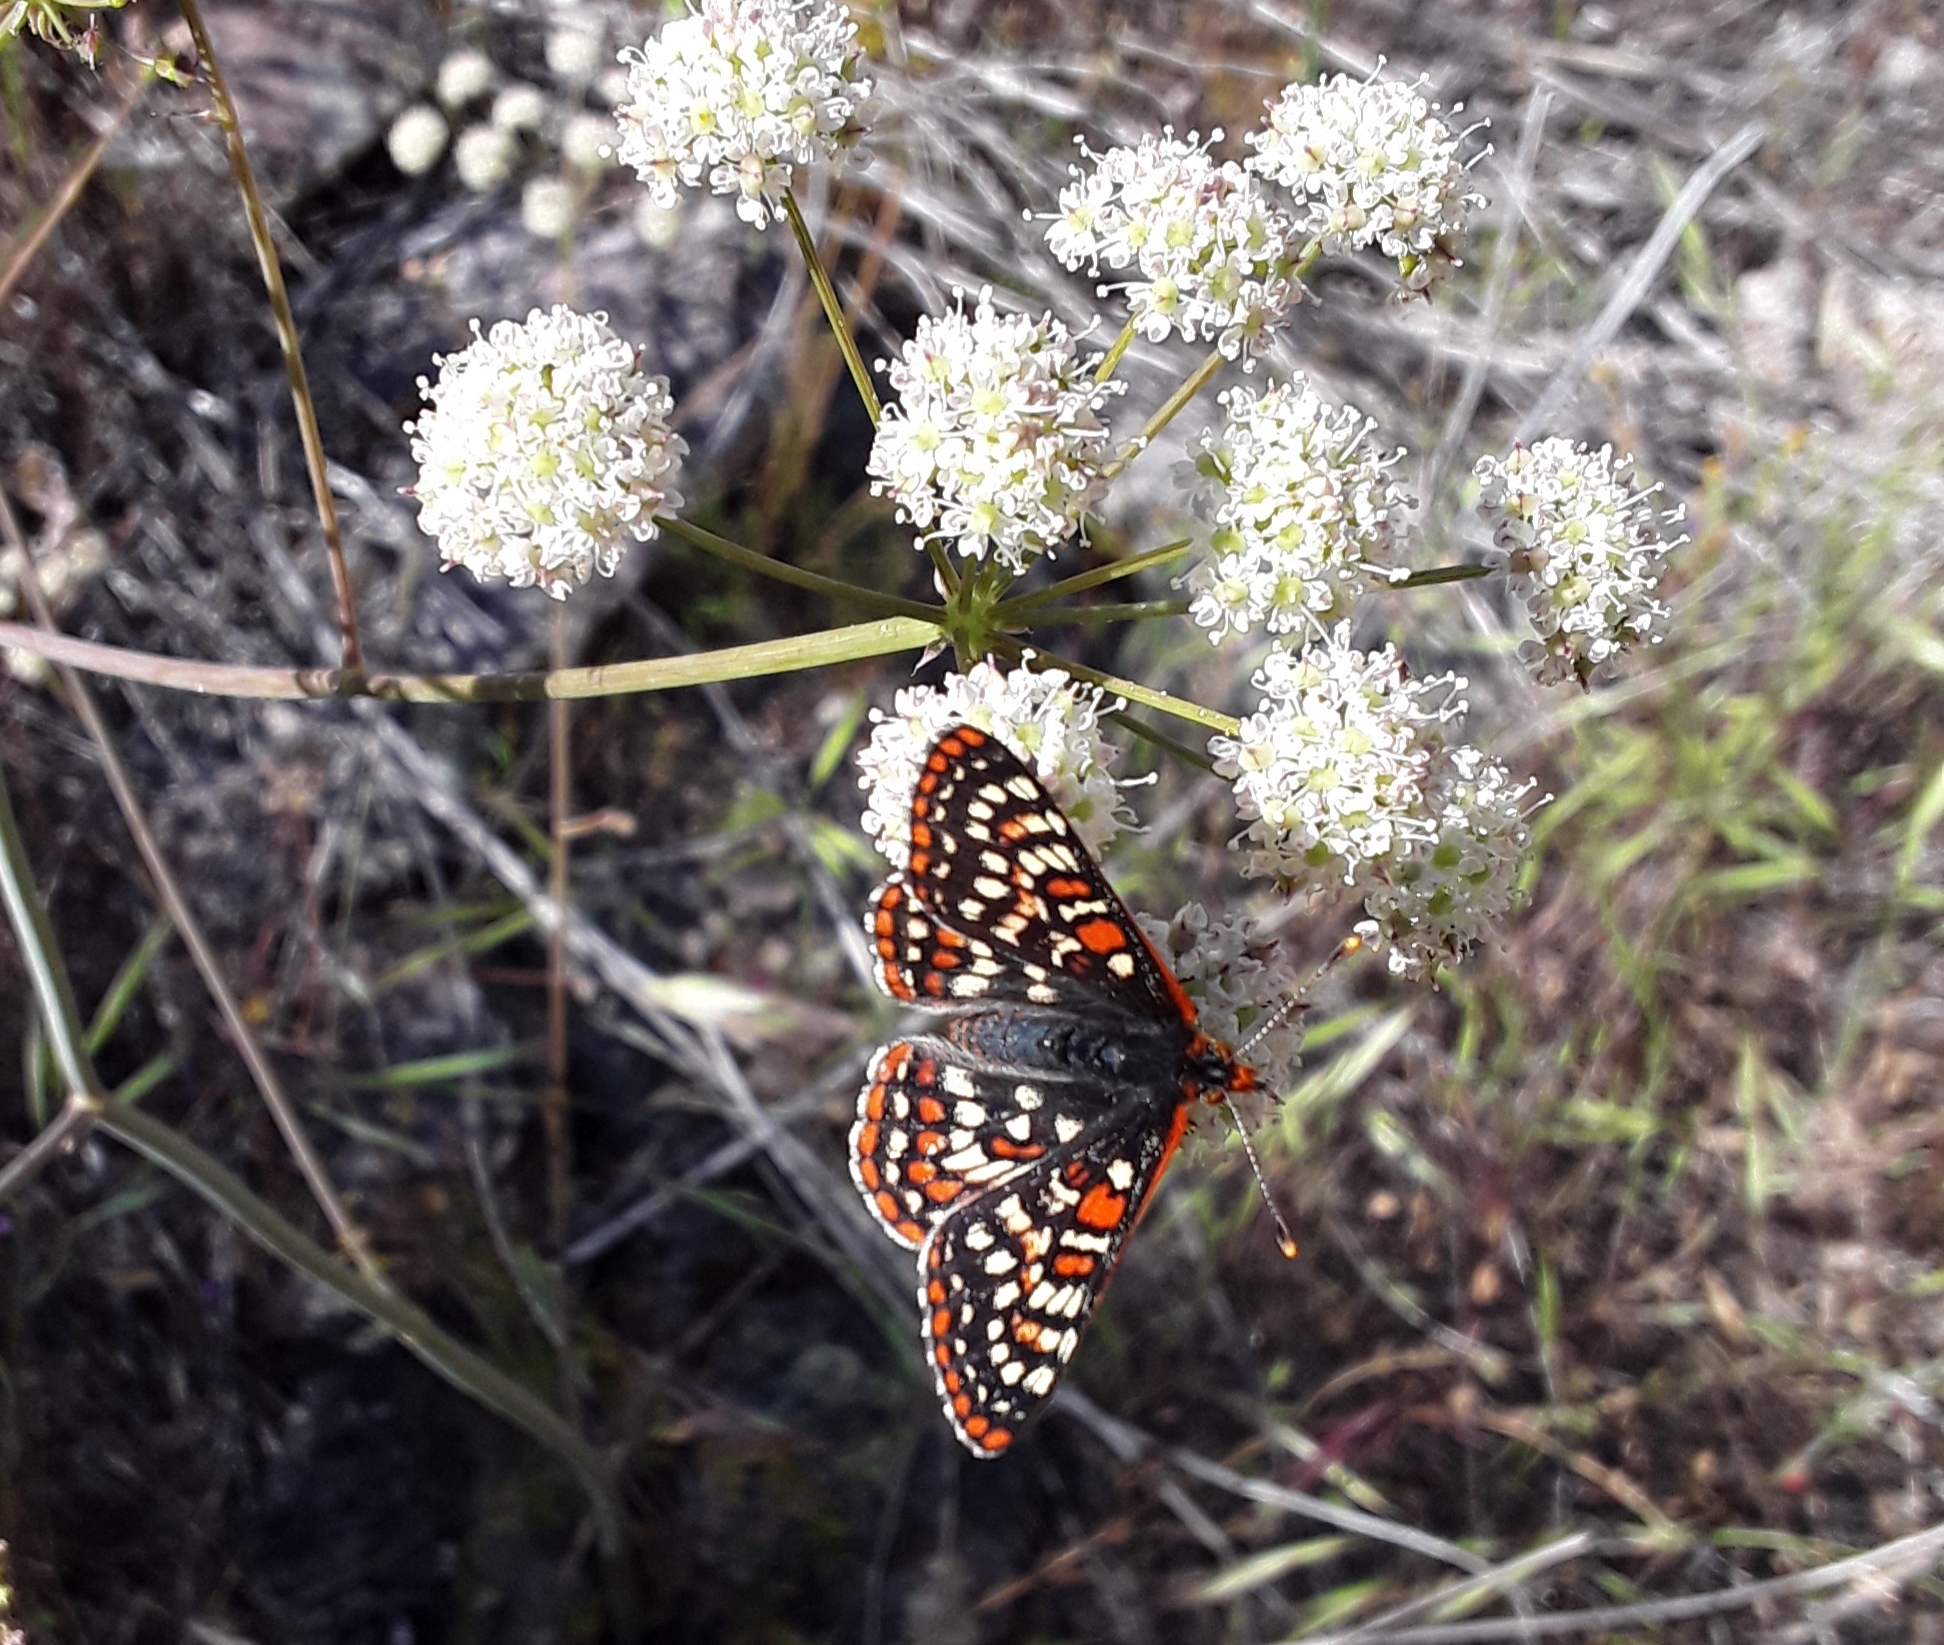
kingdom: Animalia
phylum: Arthropoda
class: Insecta
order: Lepidoptera
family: Nymphalidae
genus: Occidryas
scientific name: Occidryas editha
